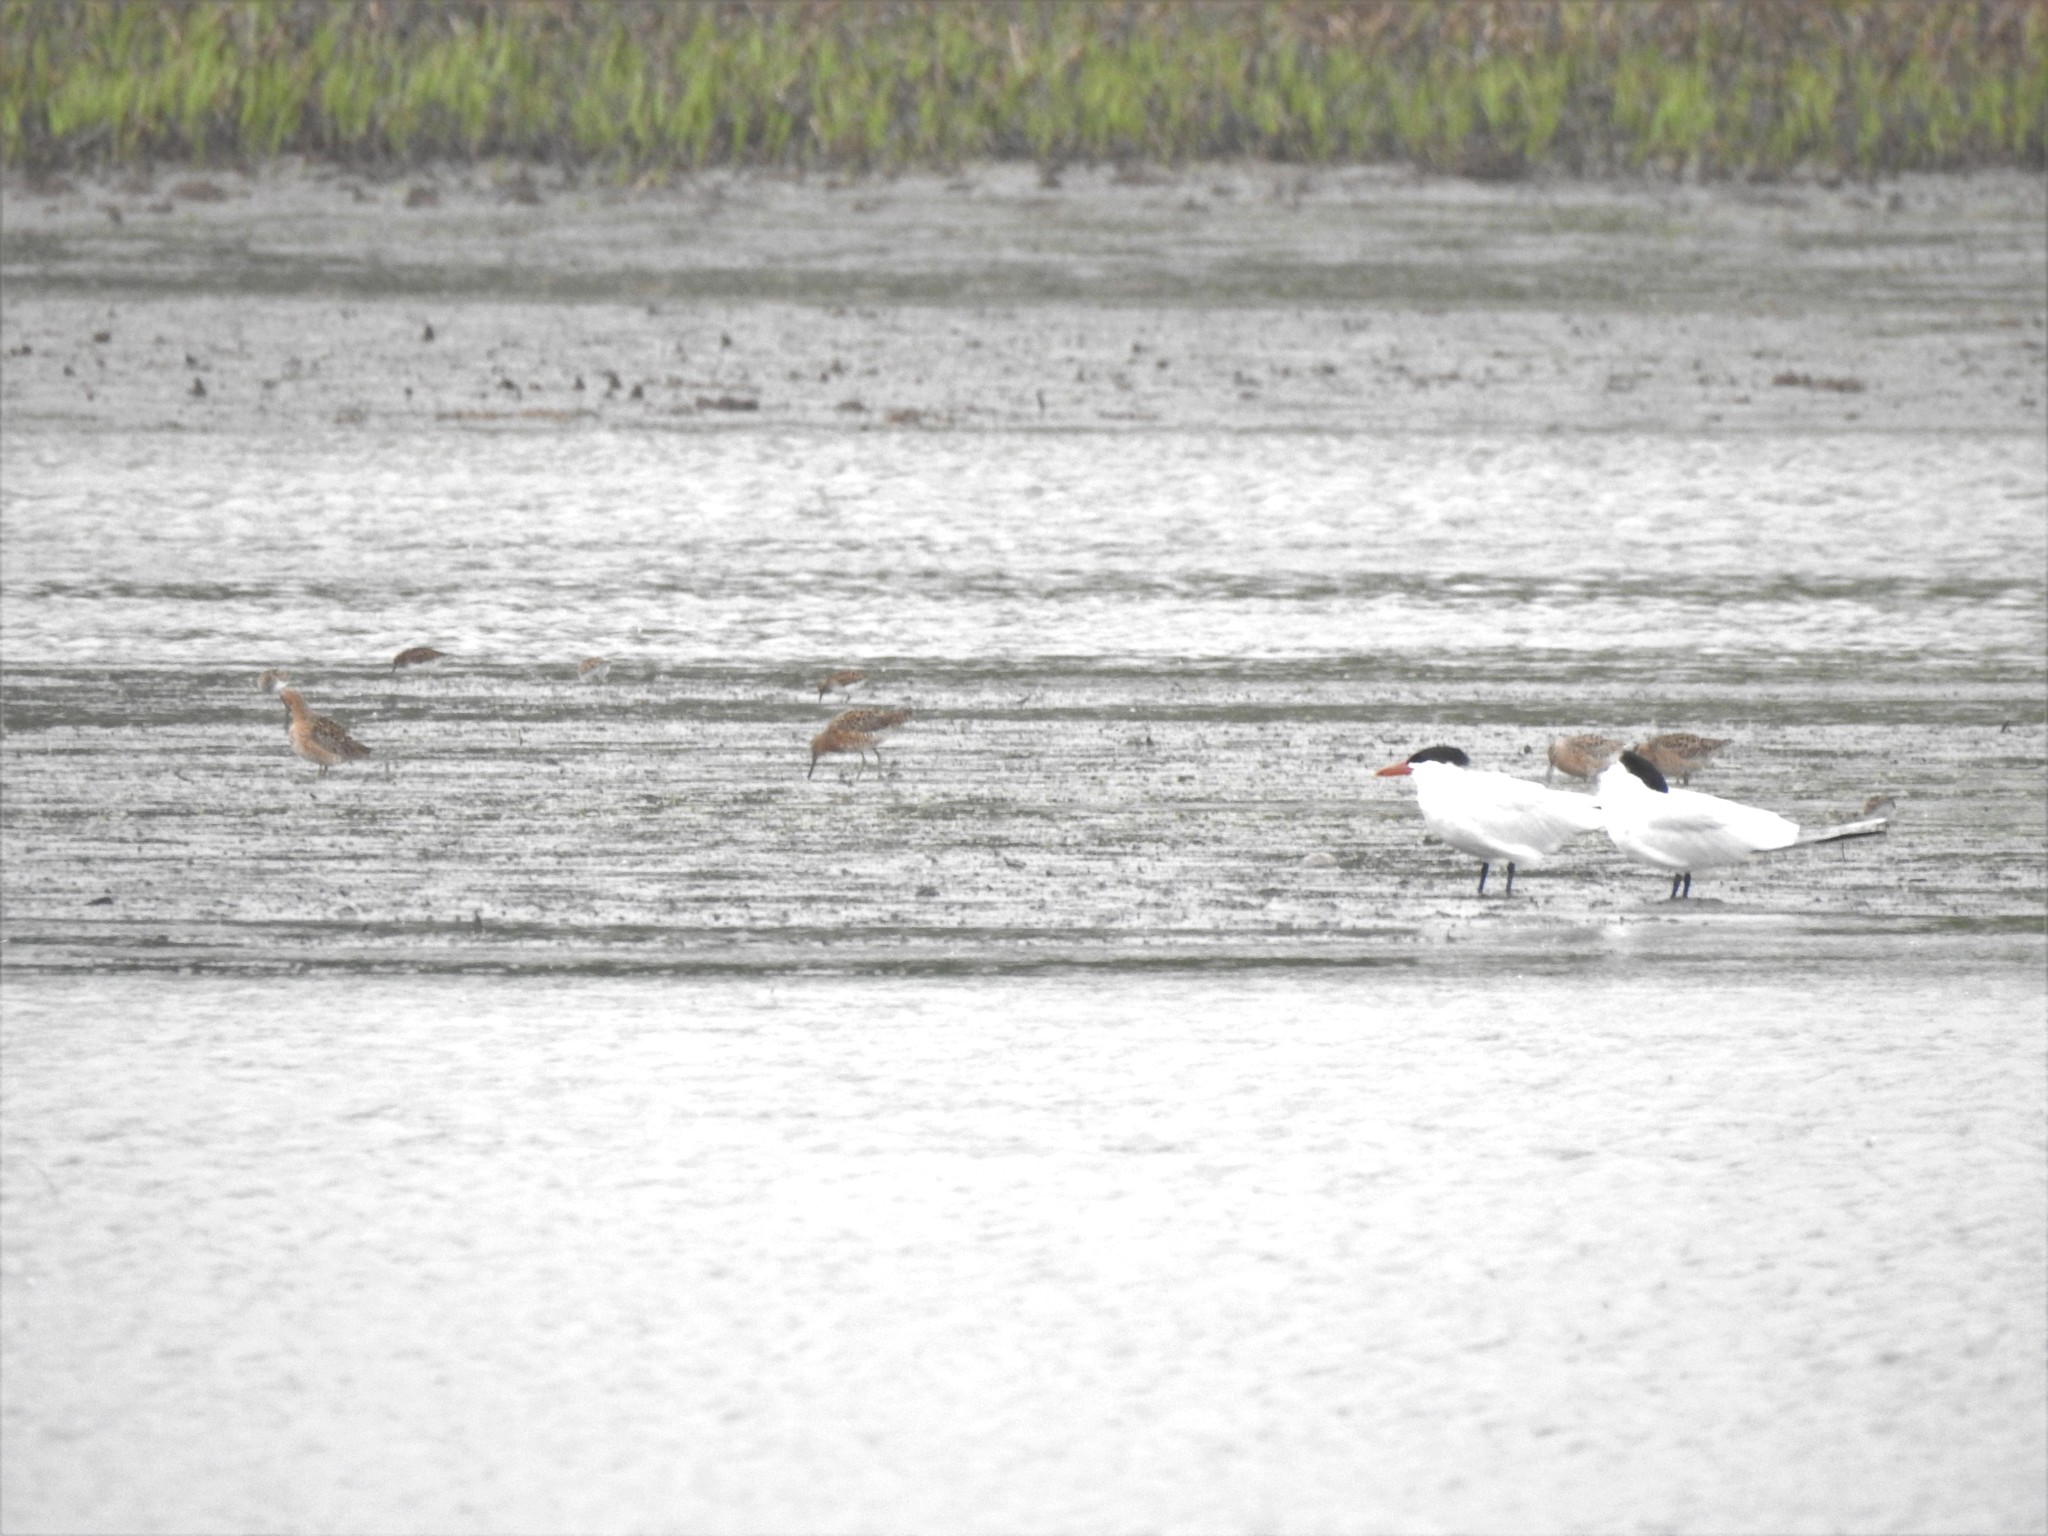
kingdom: Animalia
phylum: Chordata
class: Aves
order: Charadriiformes
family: Scolopacidae
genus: Limnodromus
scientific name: Limnodromus griseus
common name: Short-billed dowitcher
